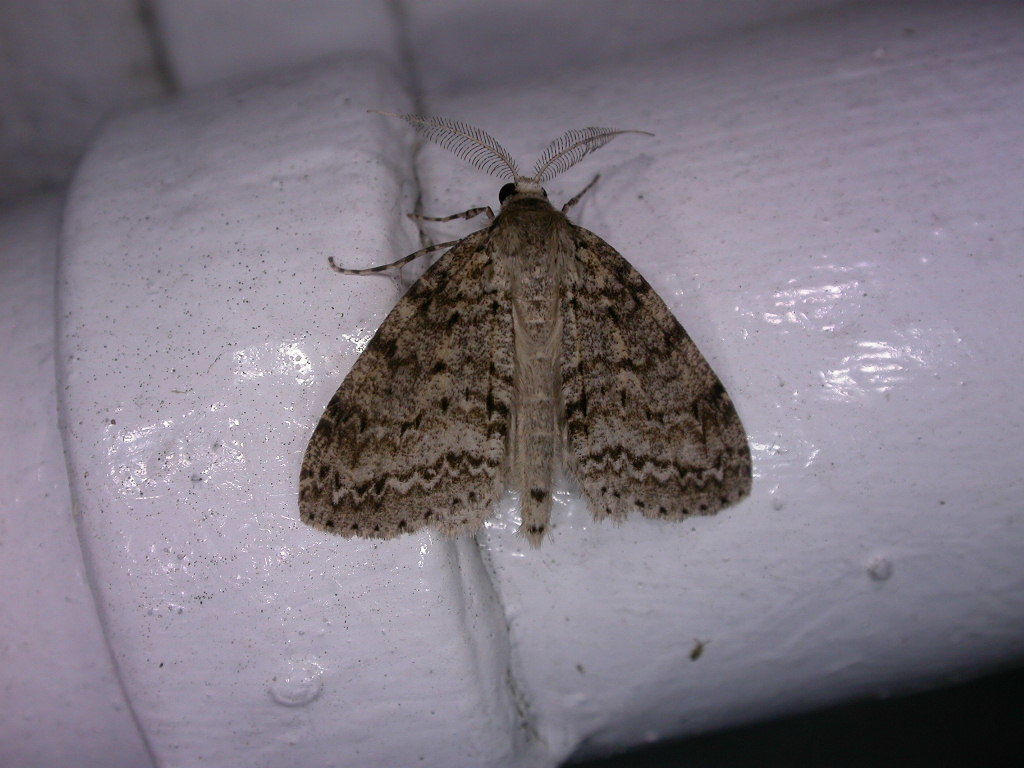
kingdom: Animalia
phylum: Arthropoda
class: Insecta
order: Lepidoptera
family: Geometridae
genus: Pseudocoremia
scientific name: Pseudocoremia fenerata
